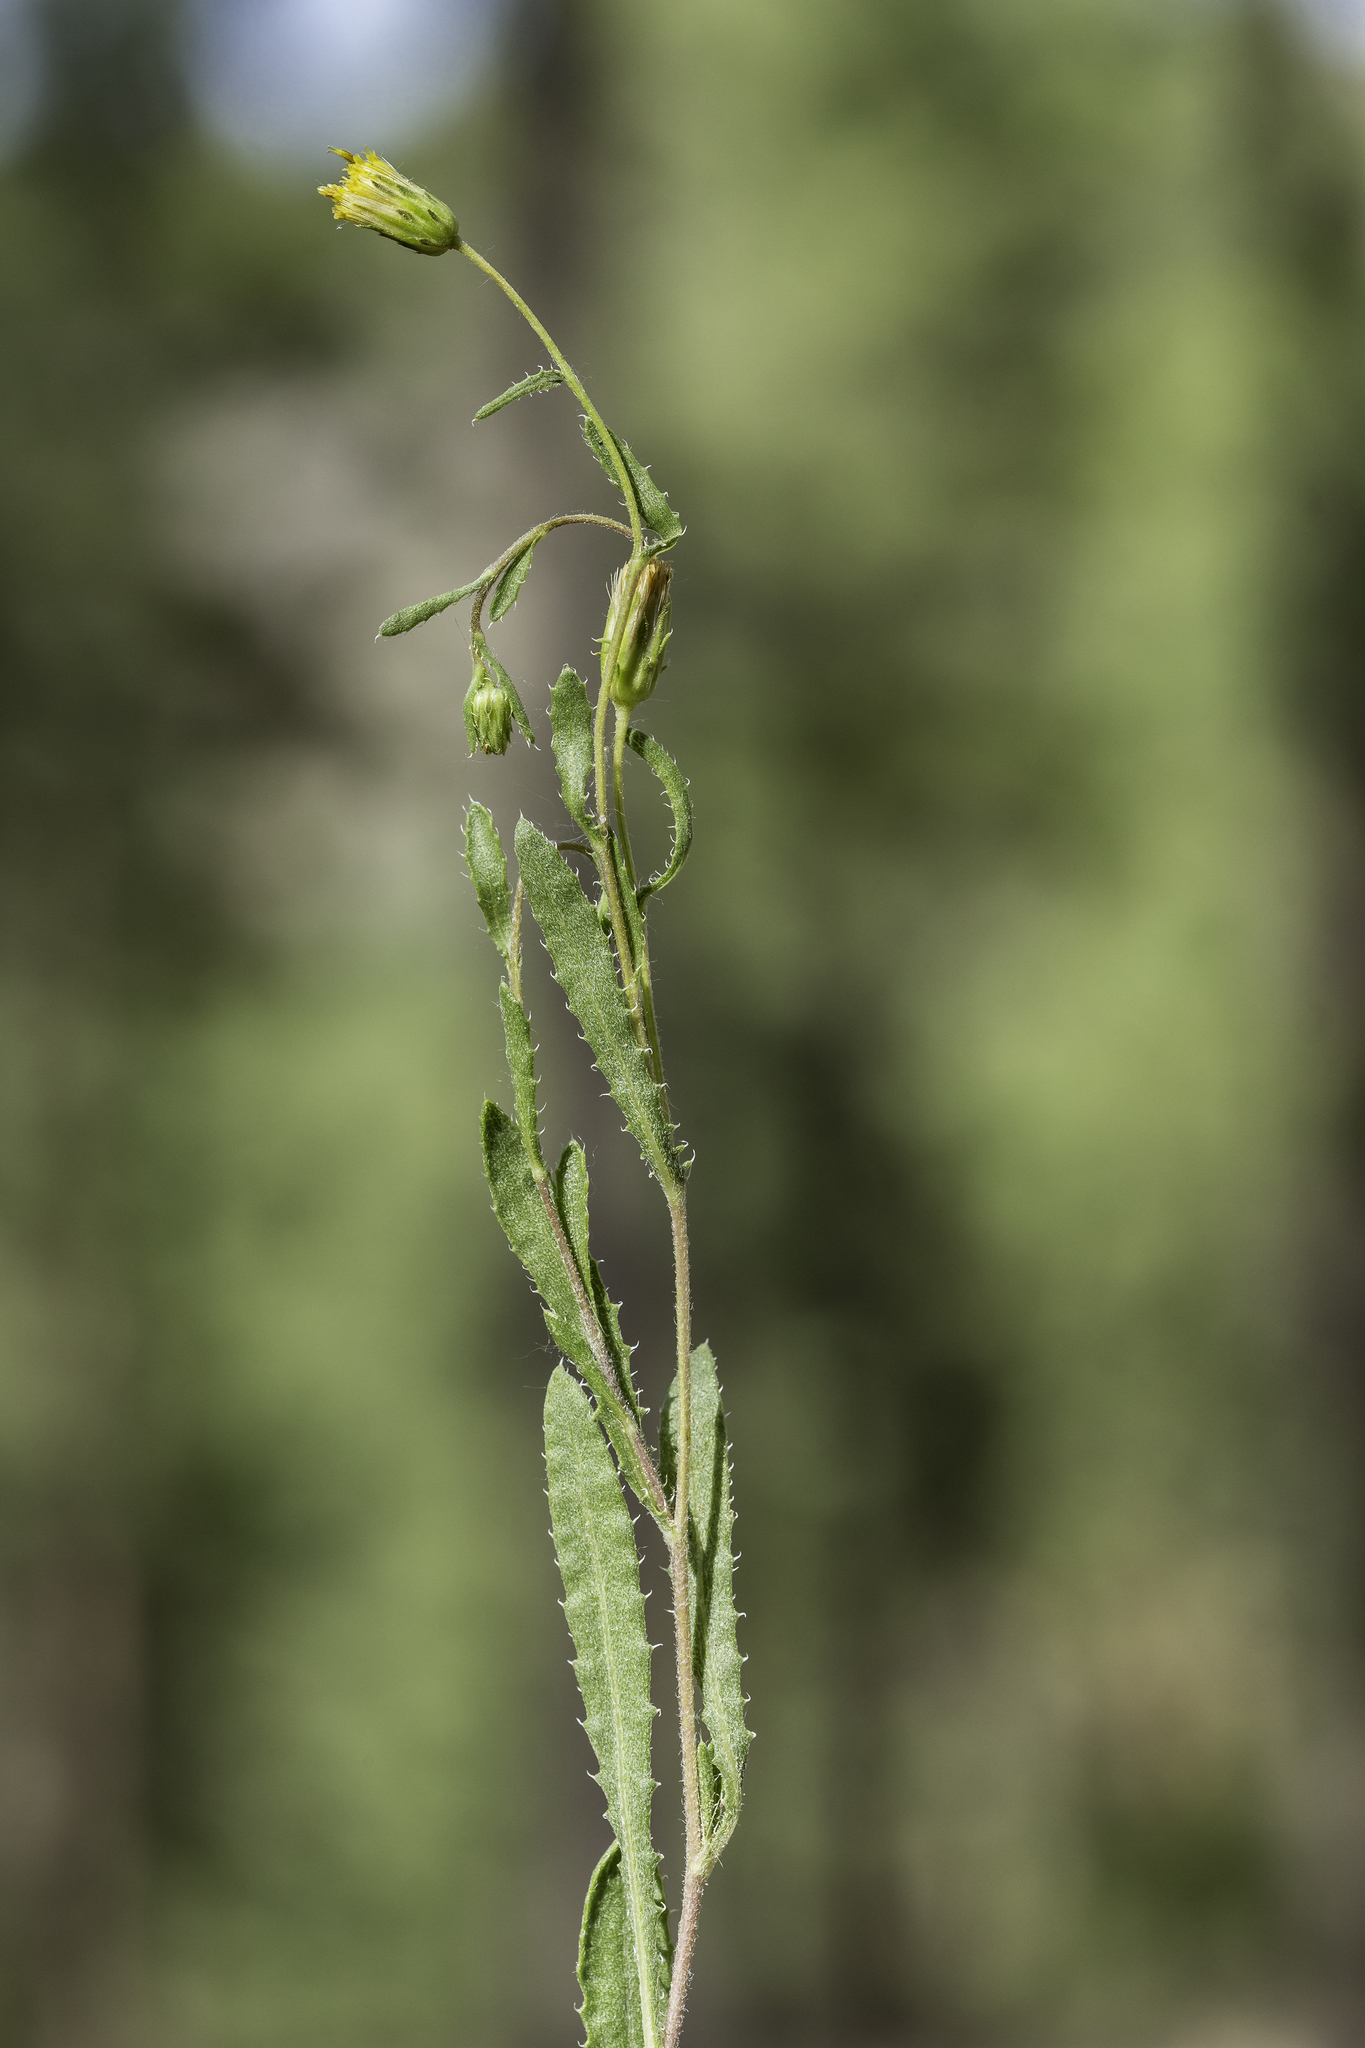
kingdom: Plantae
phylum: Tracheophyta
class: Magnoliopsida
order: Asterales
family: Asteraceae
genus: Xanthisma
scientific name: Xanthisma grindelioides
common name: Goldenweed
